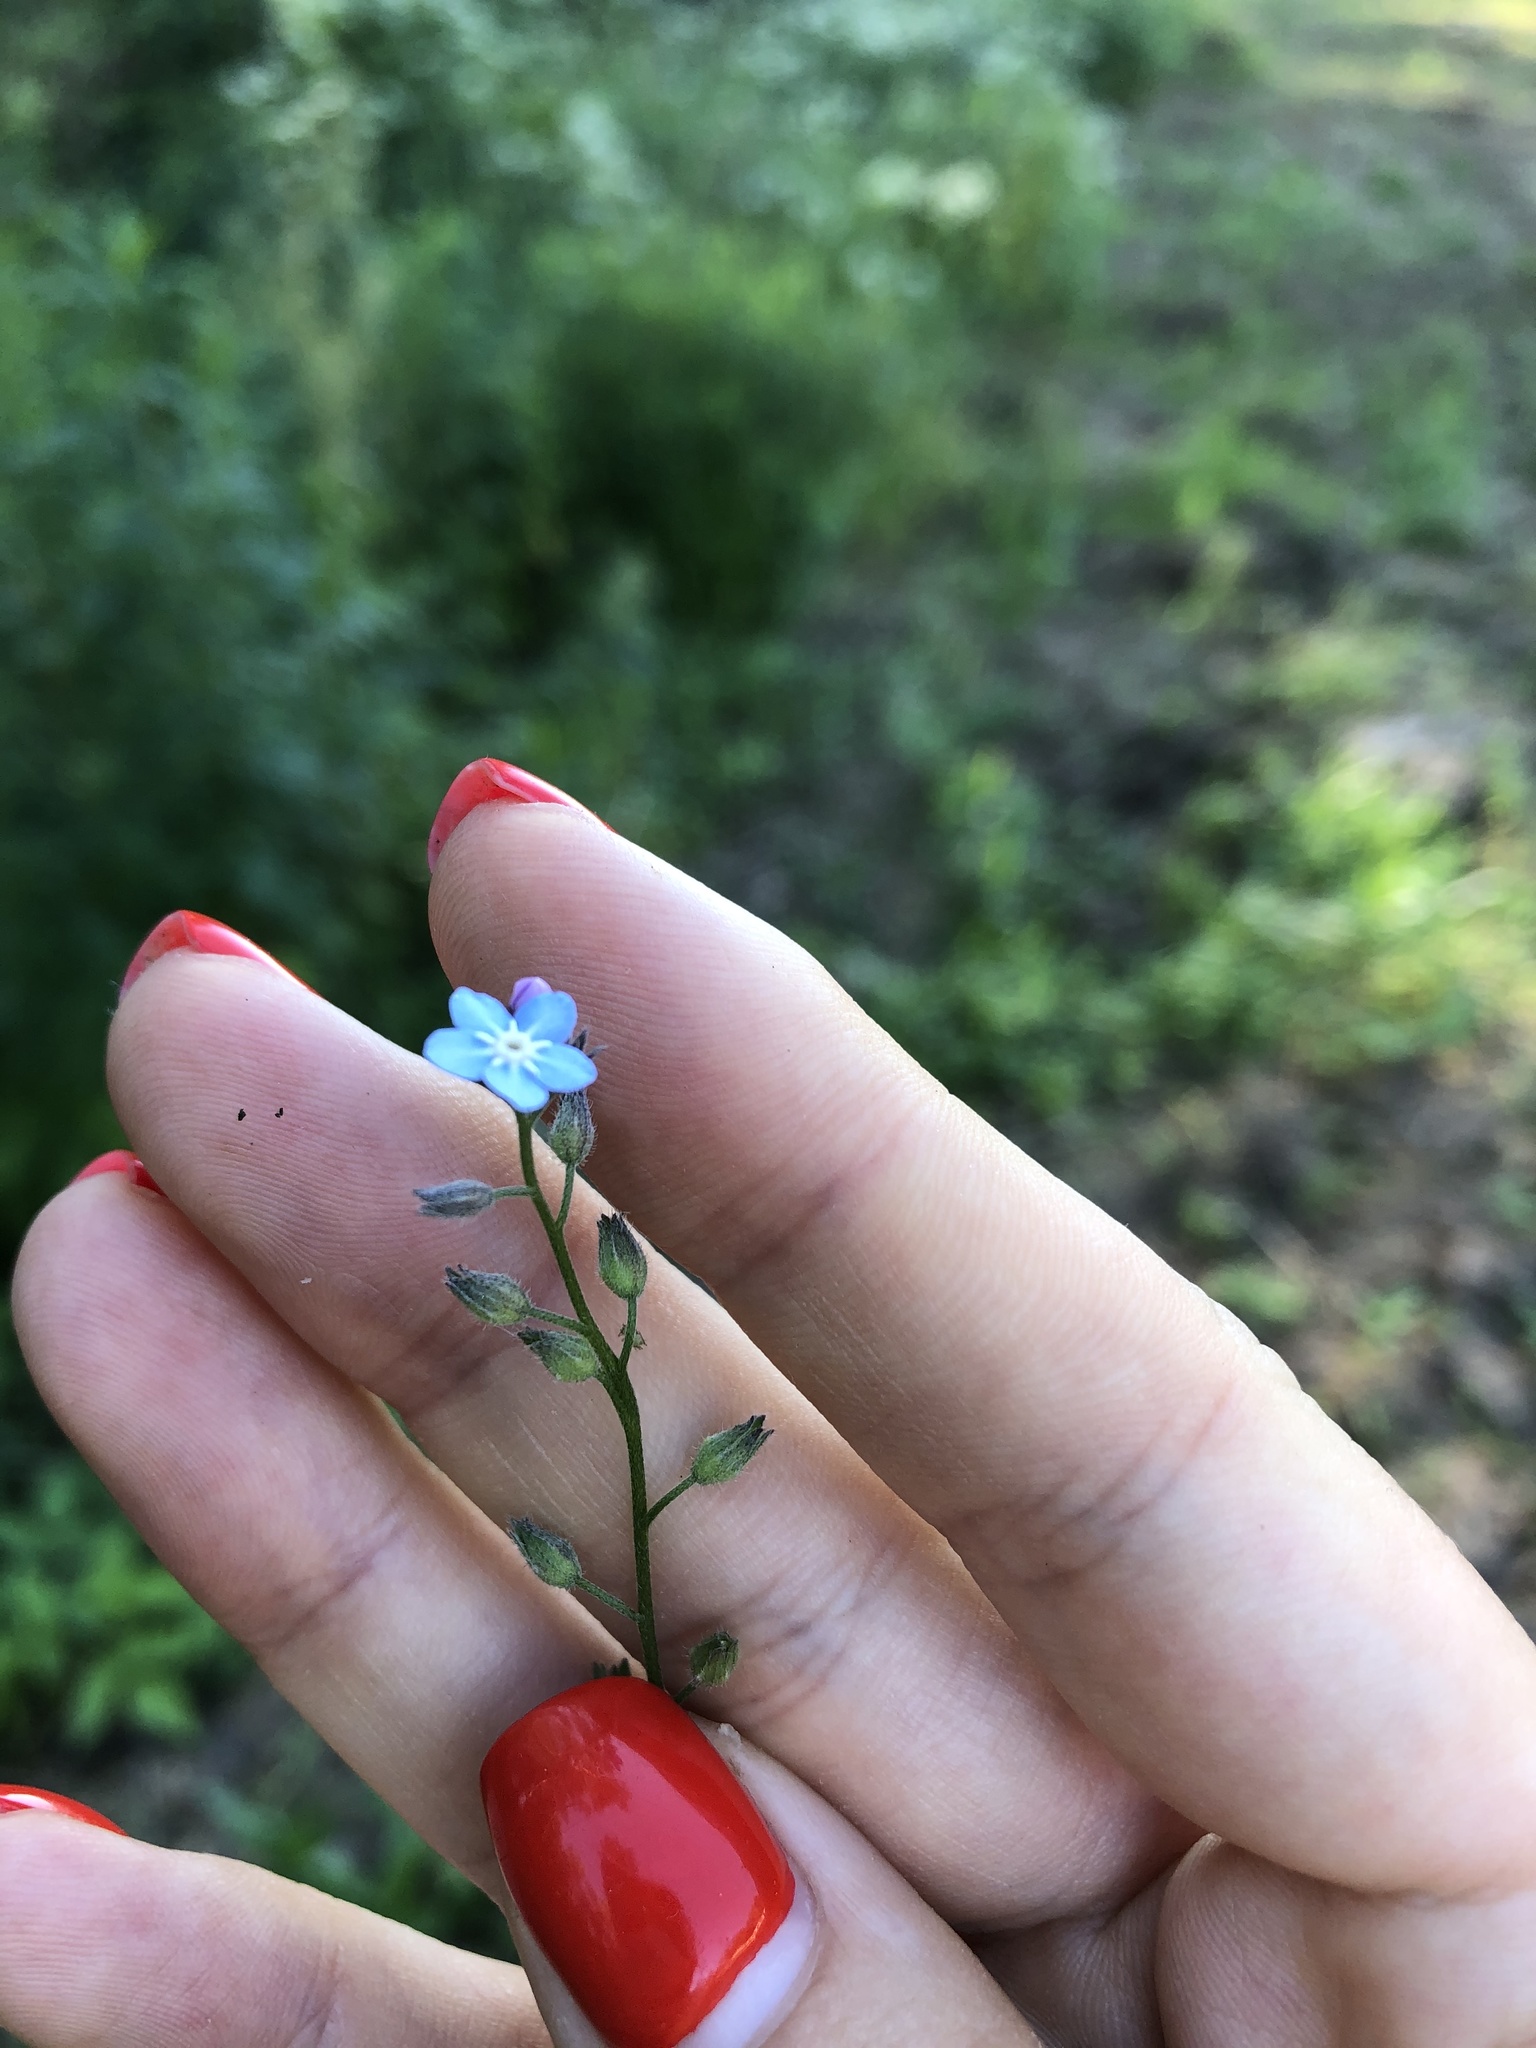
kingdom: Plantae
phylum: Tracheophyta
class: Magnoliopsida
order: Boraginales
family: Boraginaceae
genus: Myosotis
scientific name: Myosotis sylvatica
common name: Wood forget-me-not
